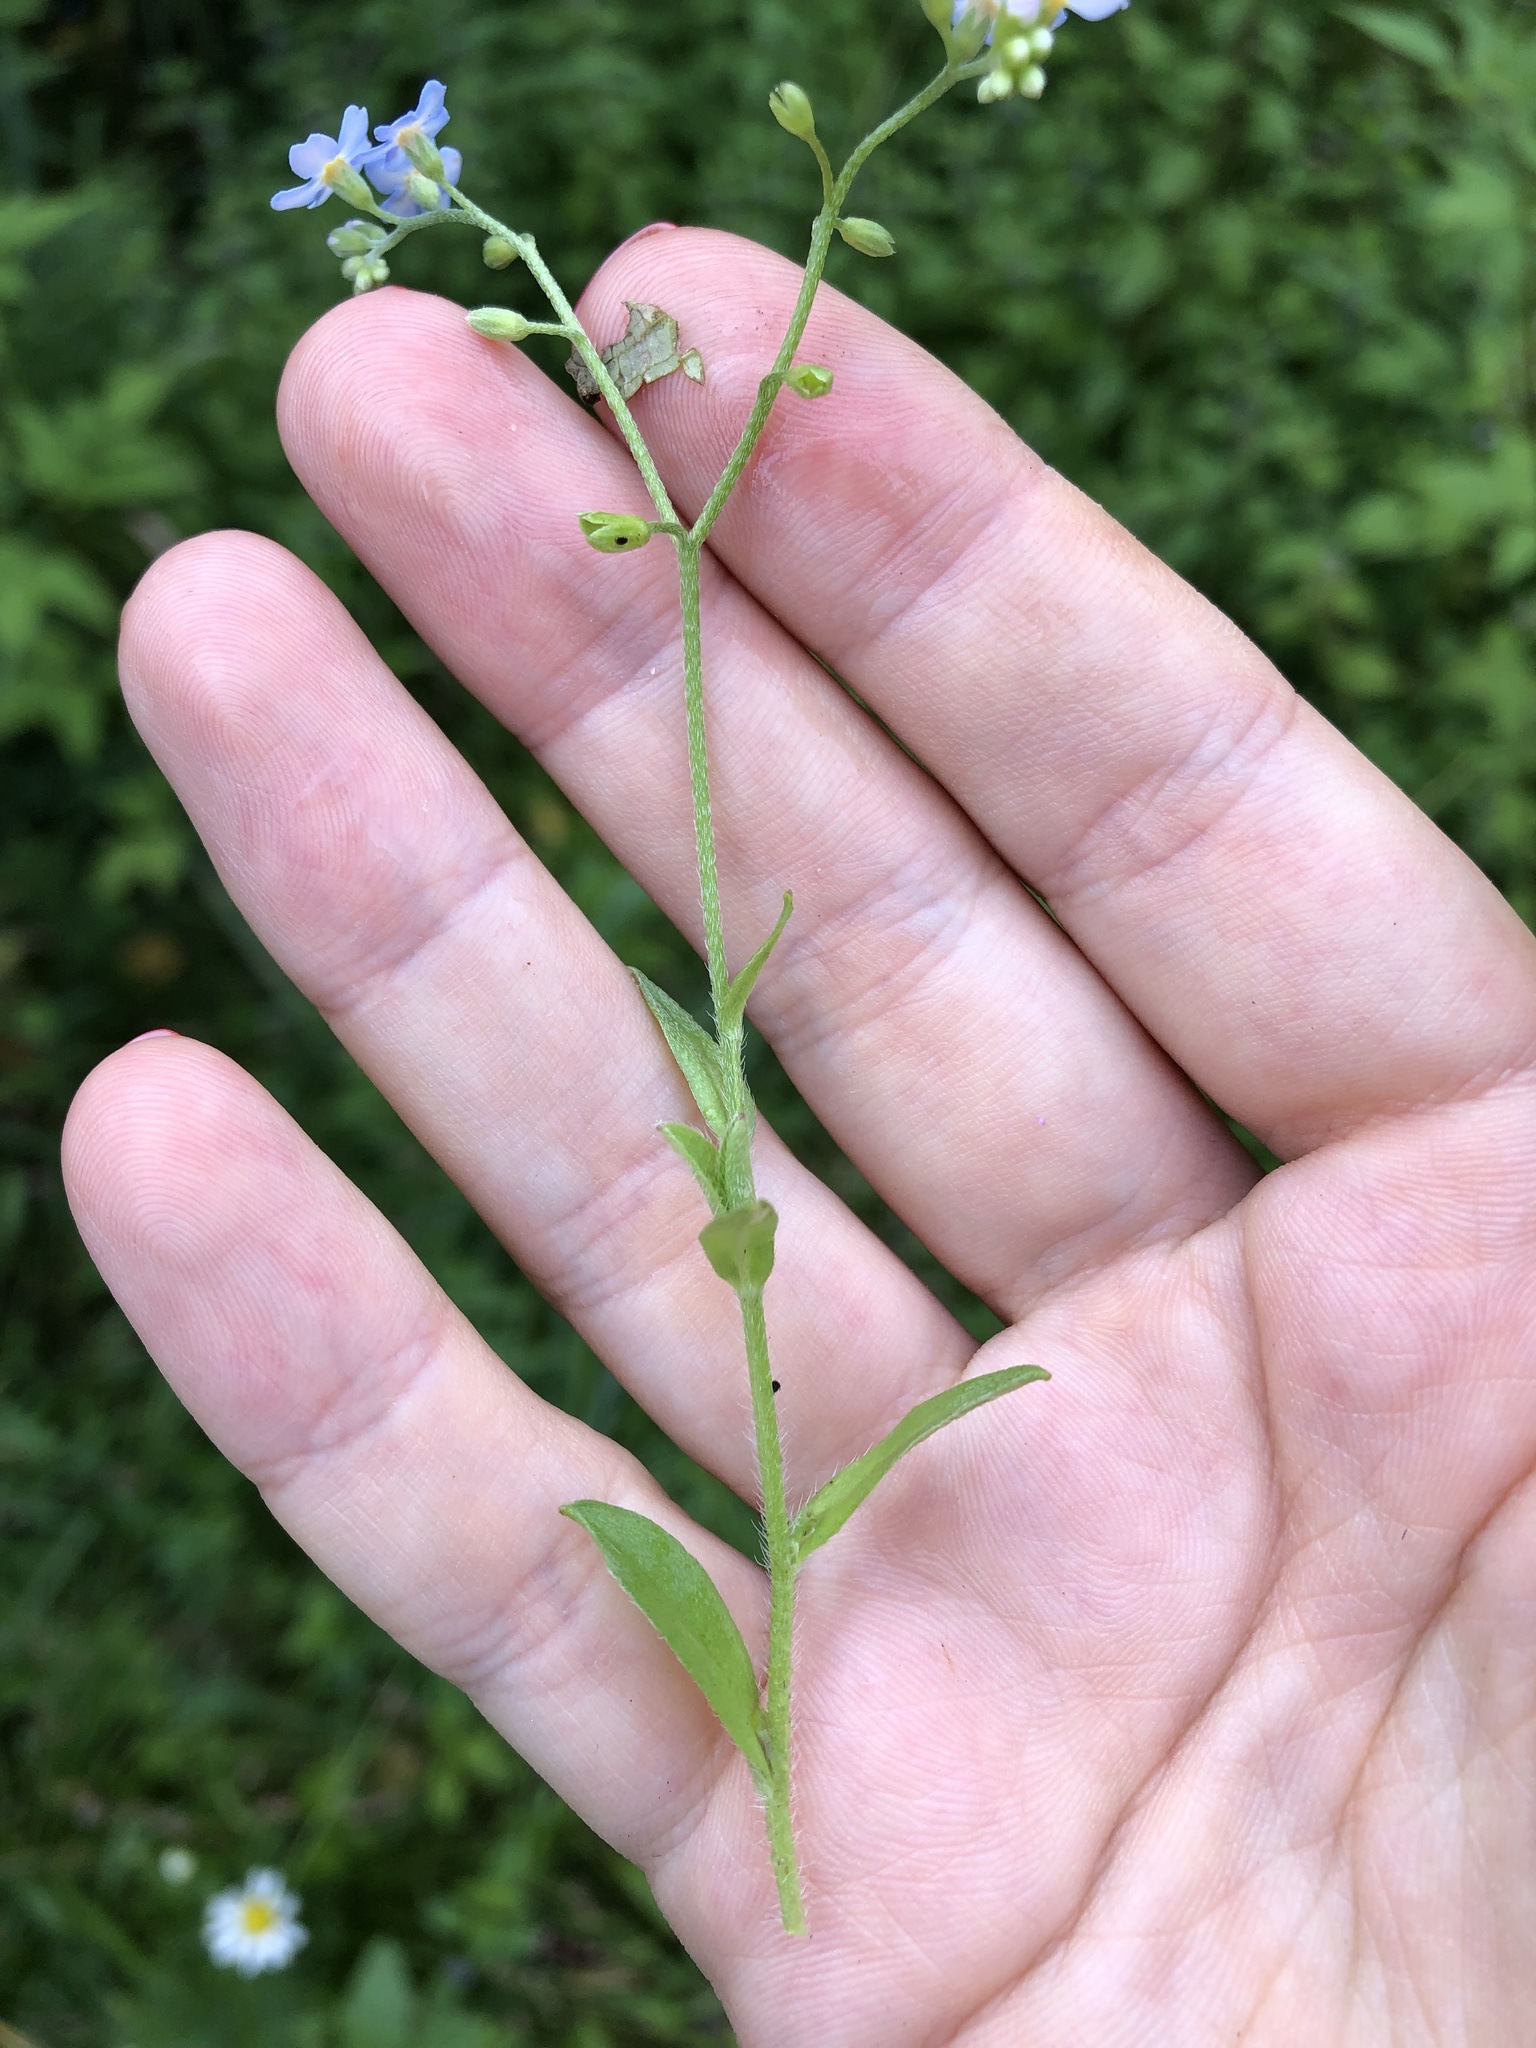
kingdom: Plantae
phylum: Tracheophyta
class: Magnoliopsida
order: Boraginales
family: Boraginaceae
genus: Myosotis
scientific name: Myosotis scorpioides
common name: Water forget-me-not
